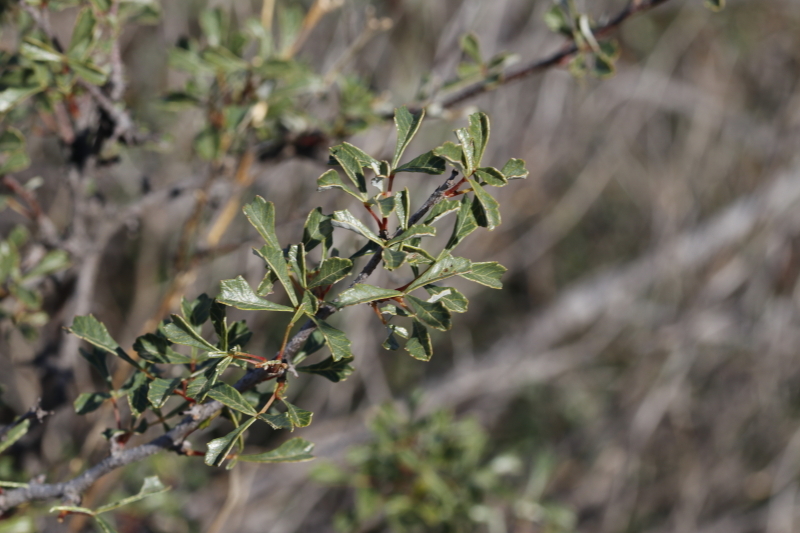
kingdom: Plantae
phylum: Tracheophyta
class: Magnoliopsida
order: Sapindales
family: Anacardiaceae
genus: Searsia
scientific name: Searsia dissecta
